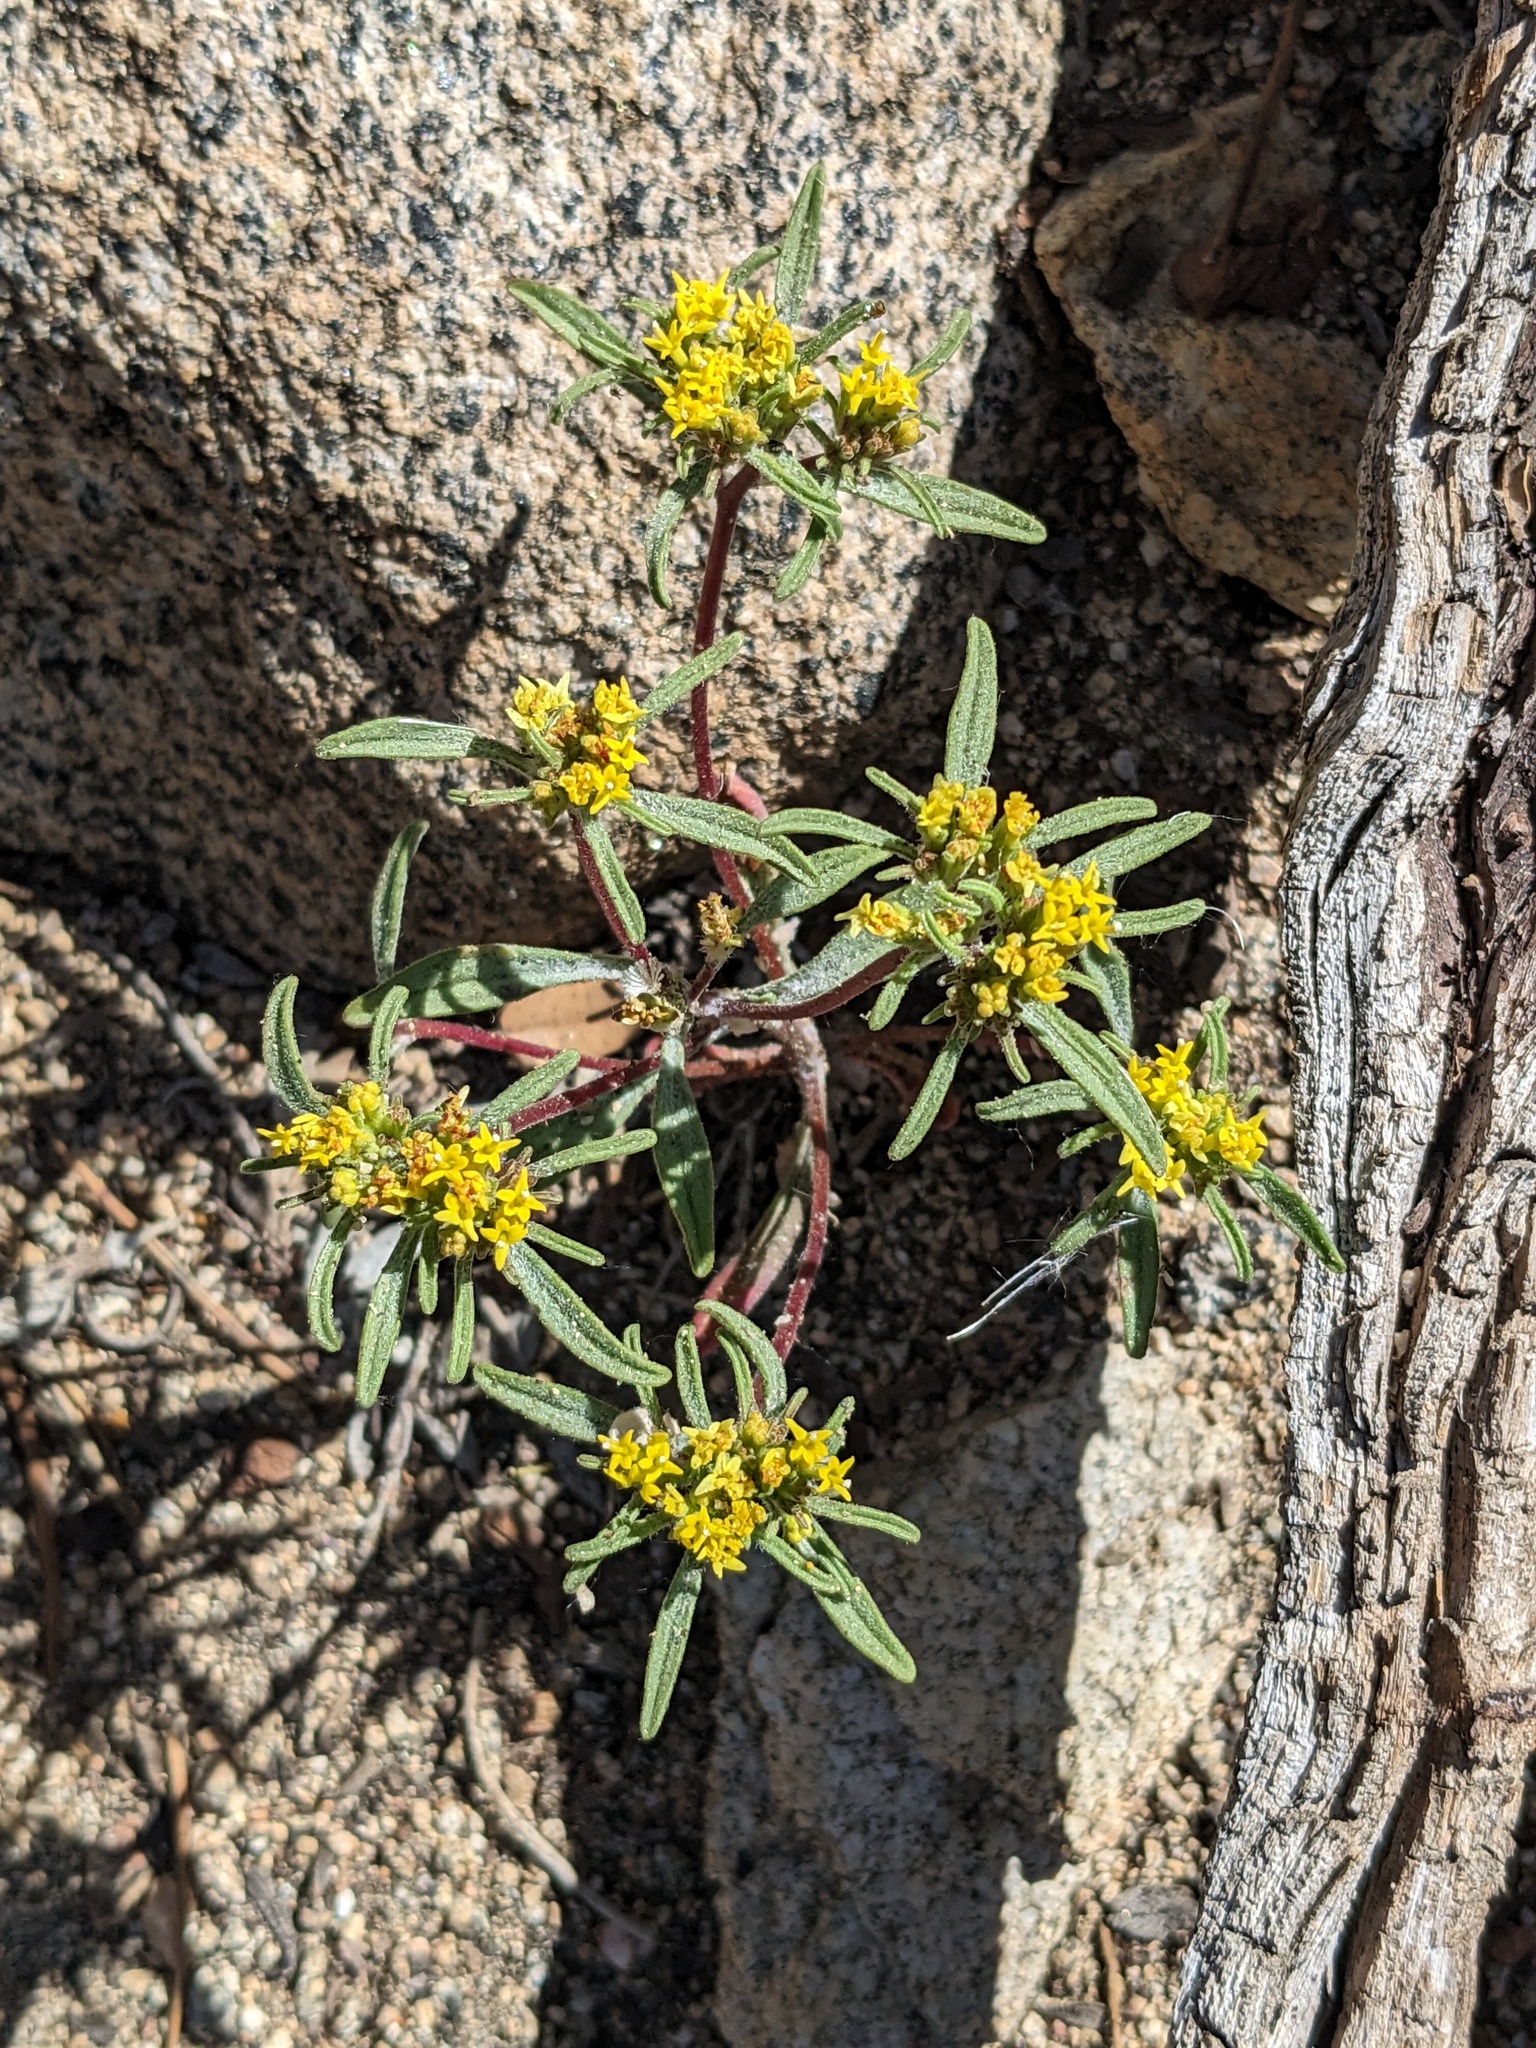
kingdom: Plantae
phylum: Tracheophyta
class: Magnoliopsida
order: Asterales
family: Asteraceae
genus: Orochaenactis
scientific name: Orochaenactis thysanocarpha
